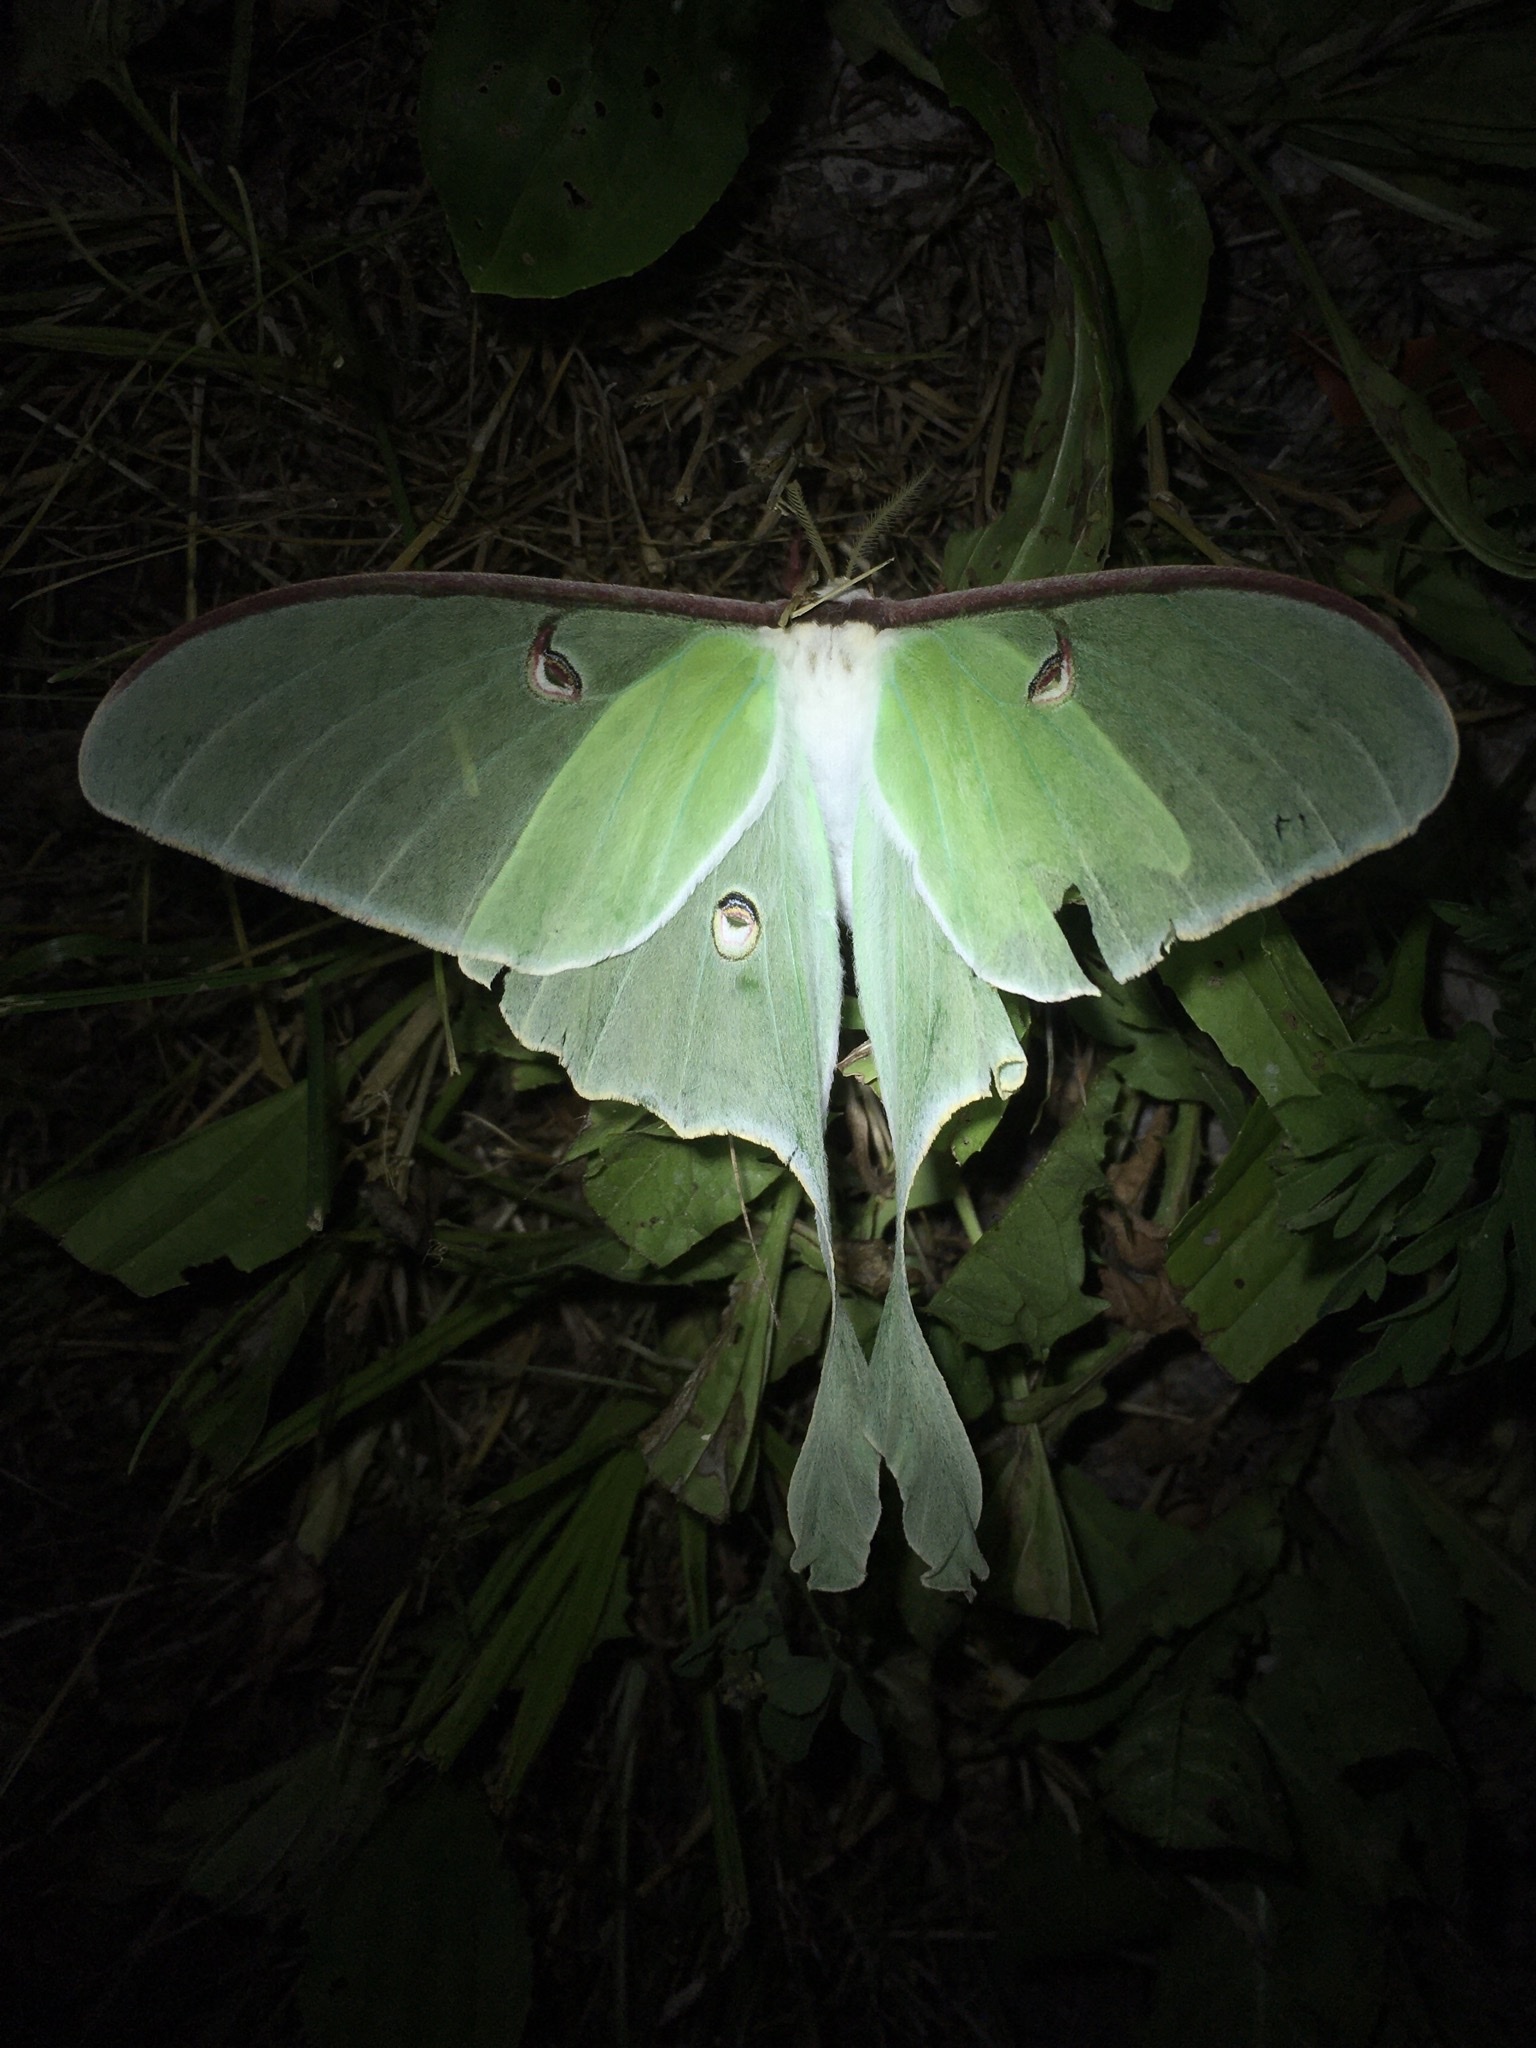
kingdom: Animalia
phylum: Arthropoda
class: Insecta
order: Lepidoptera
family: Saturniidae
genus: Actias
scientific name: Actias luna
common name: Luna moth
